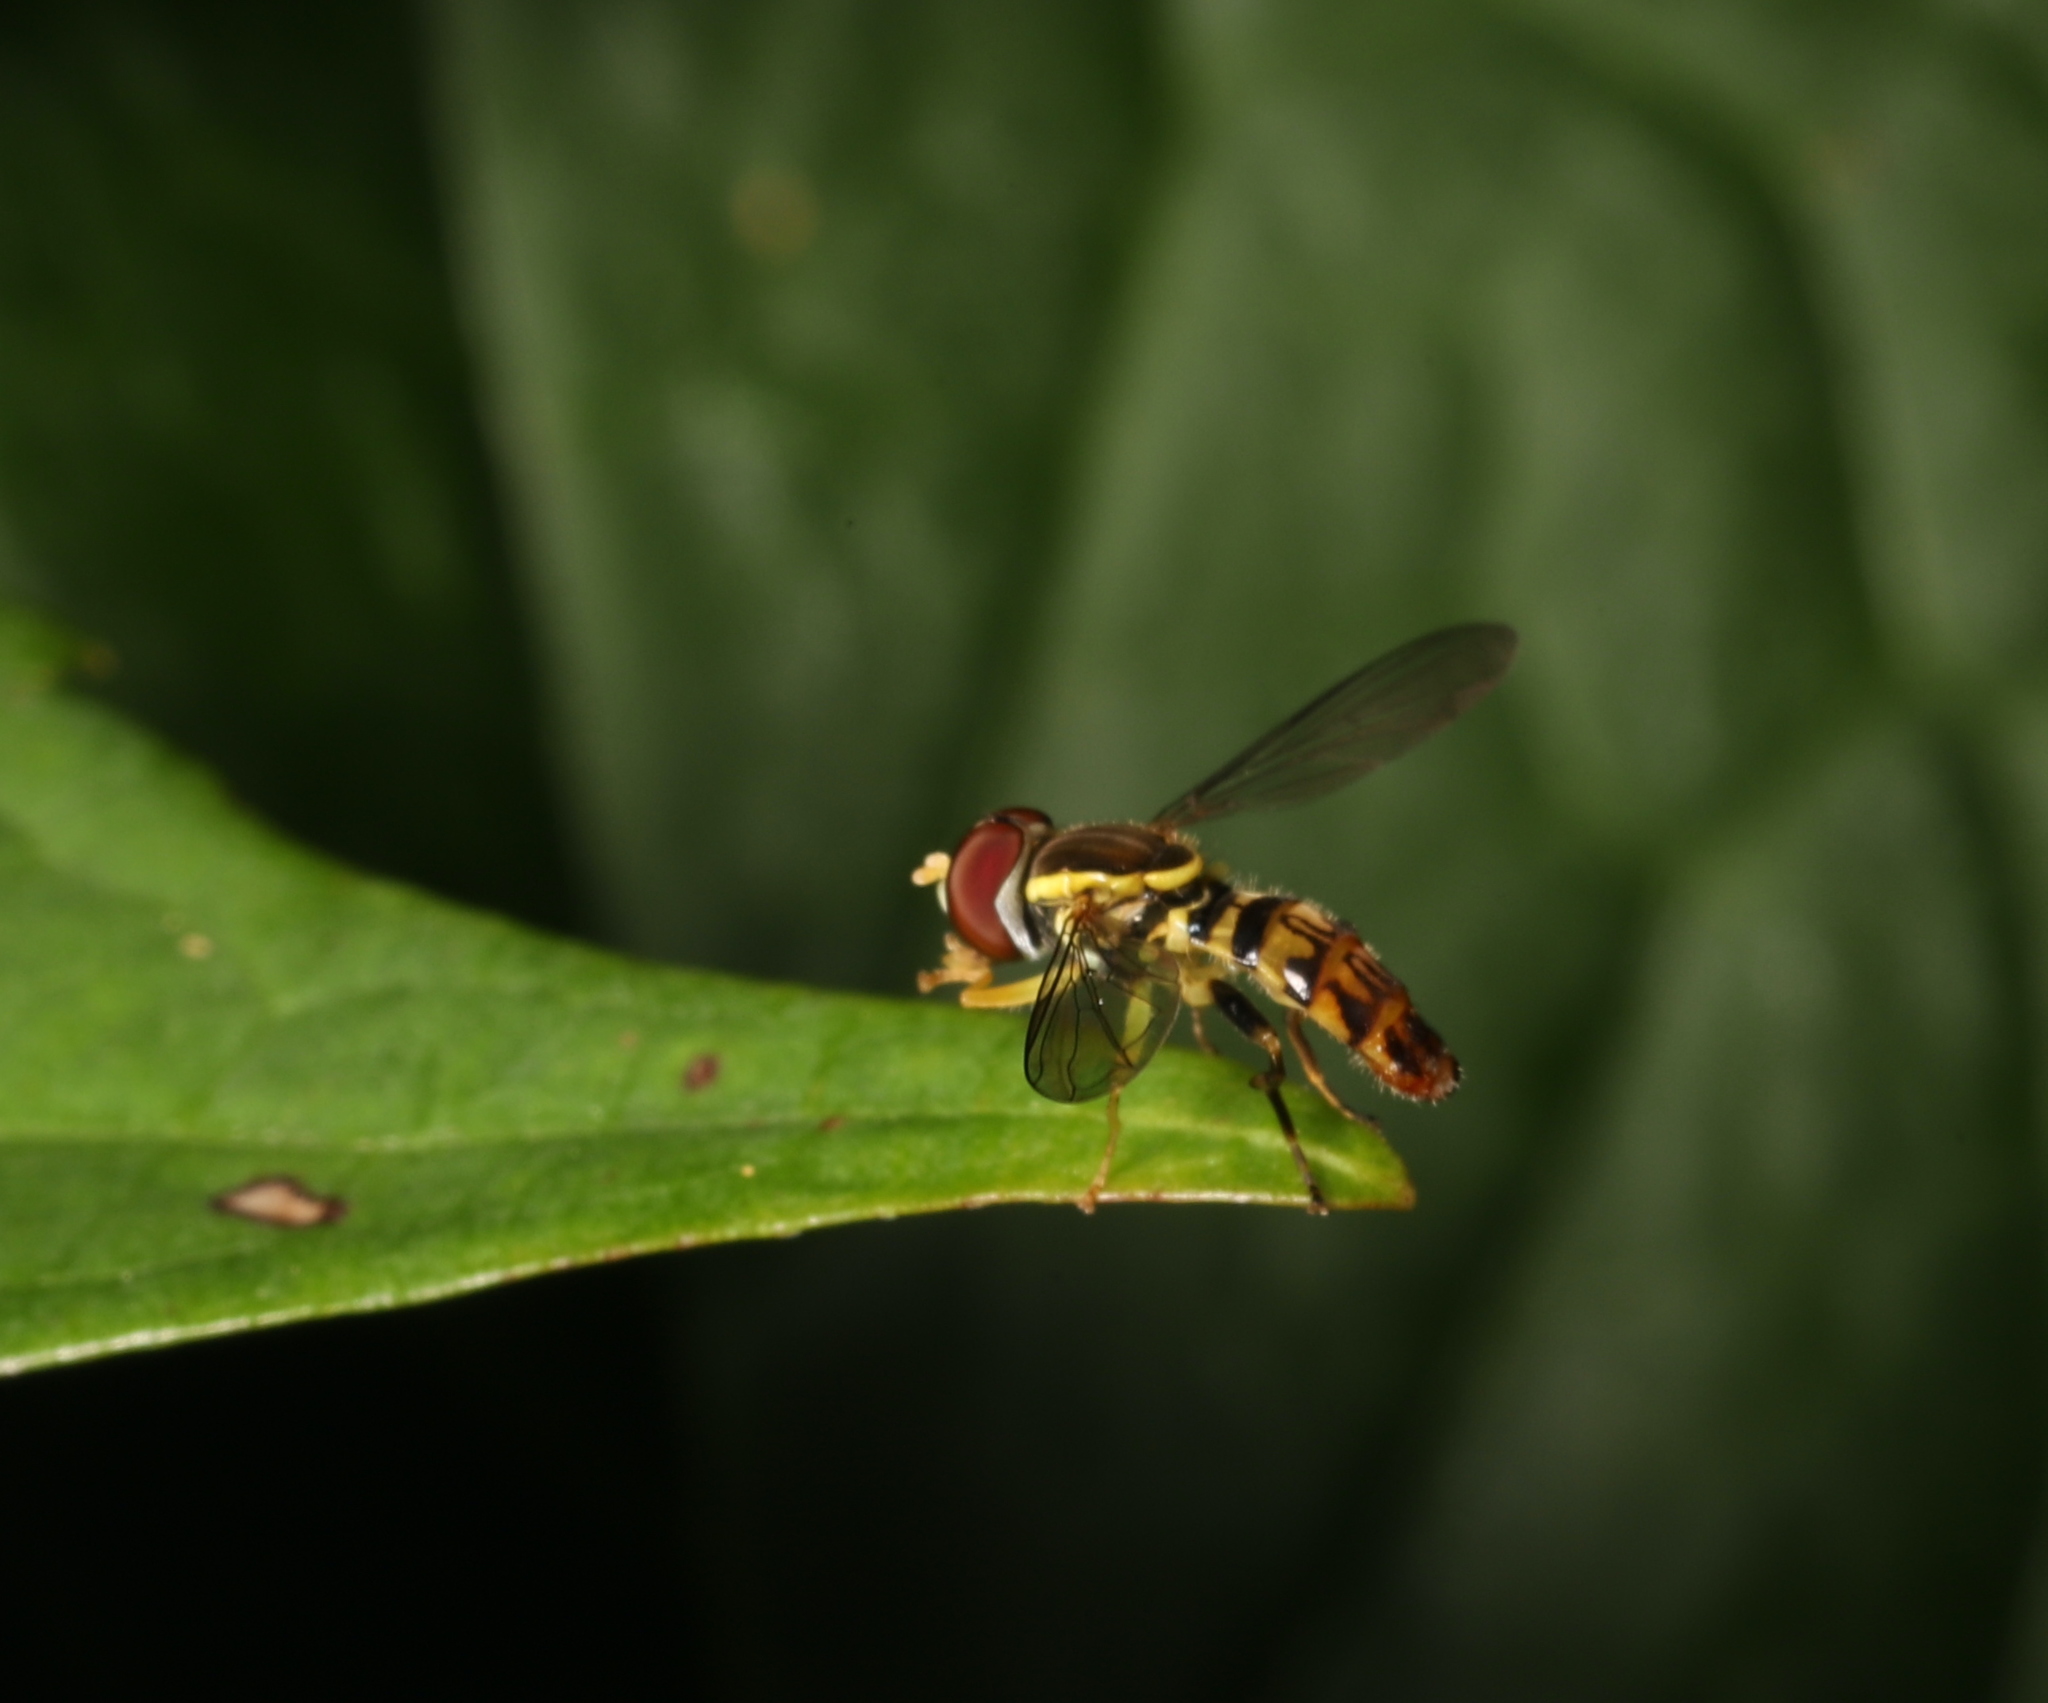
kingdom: Animalia
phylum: Arthropoda
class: Insecta
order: Diptera
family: Syrphidae
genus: Toxomerus
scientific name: Toxomerus geminatus
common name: Eastern calligrapher
